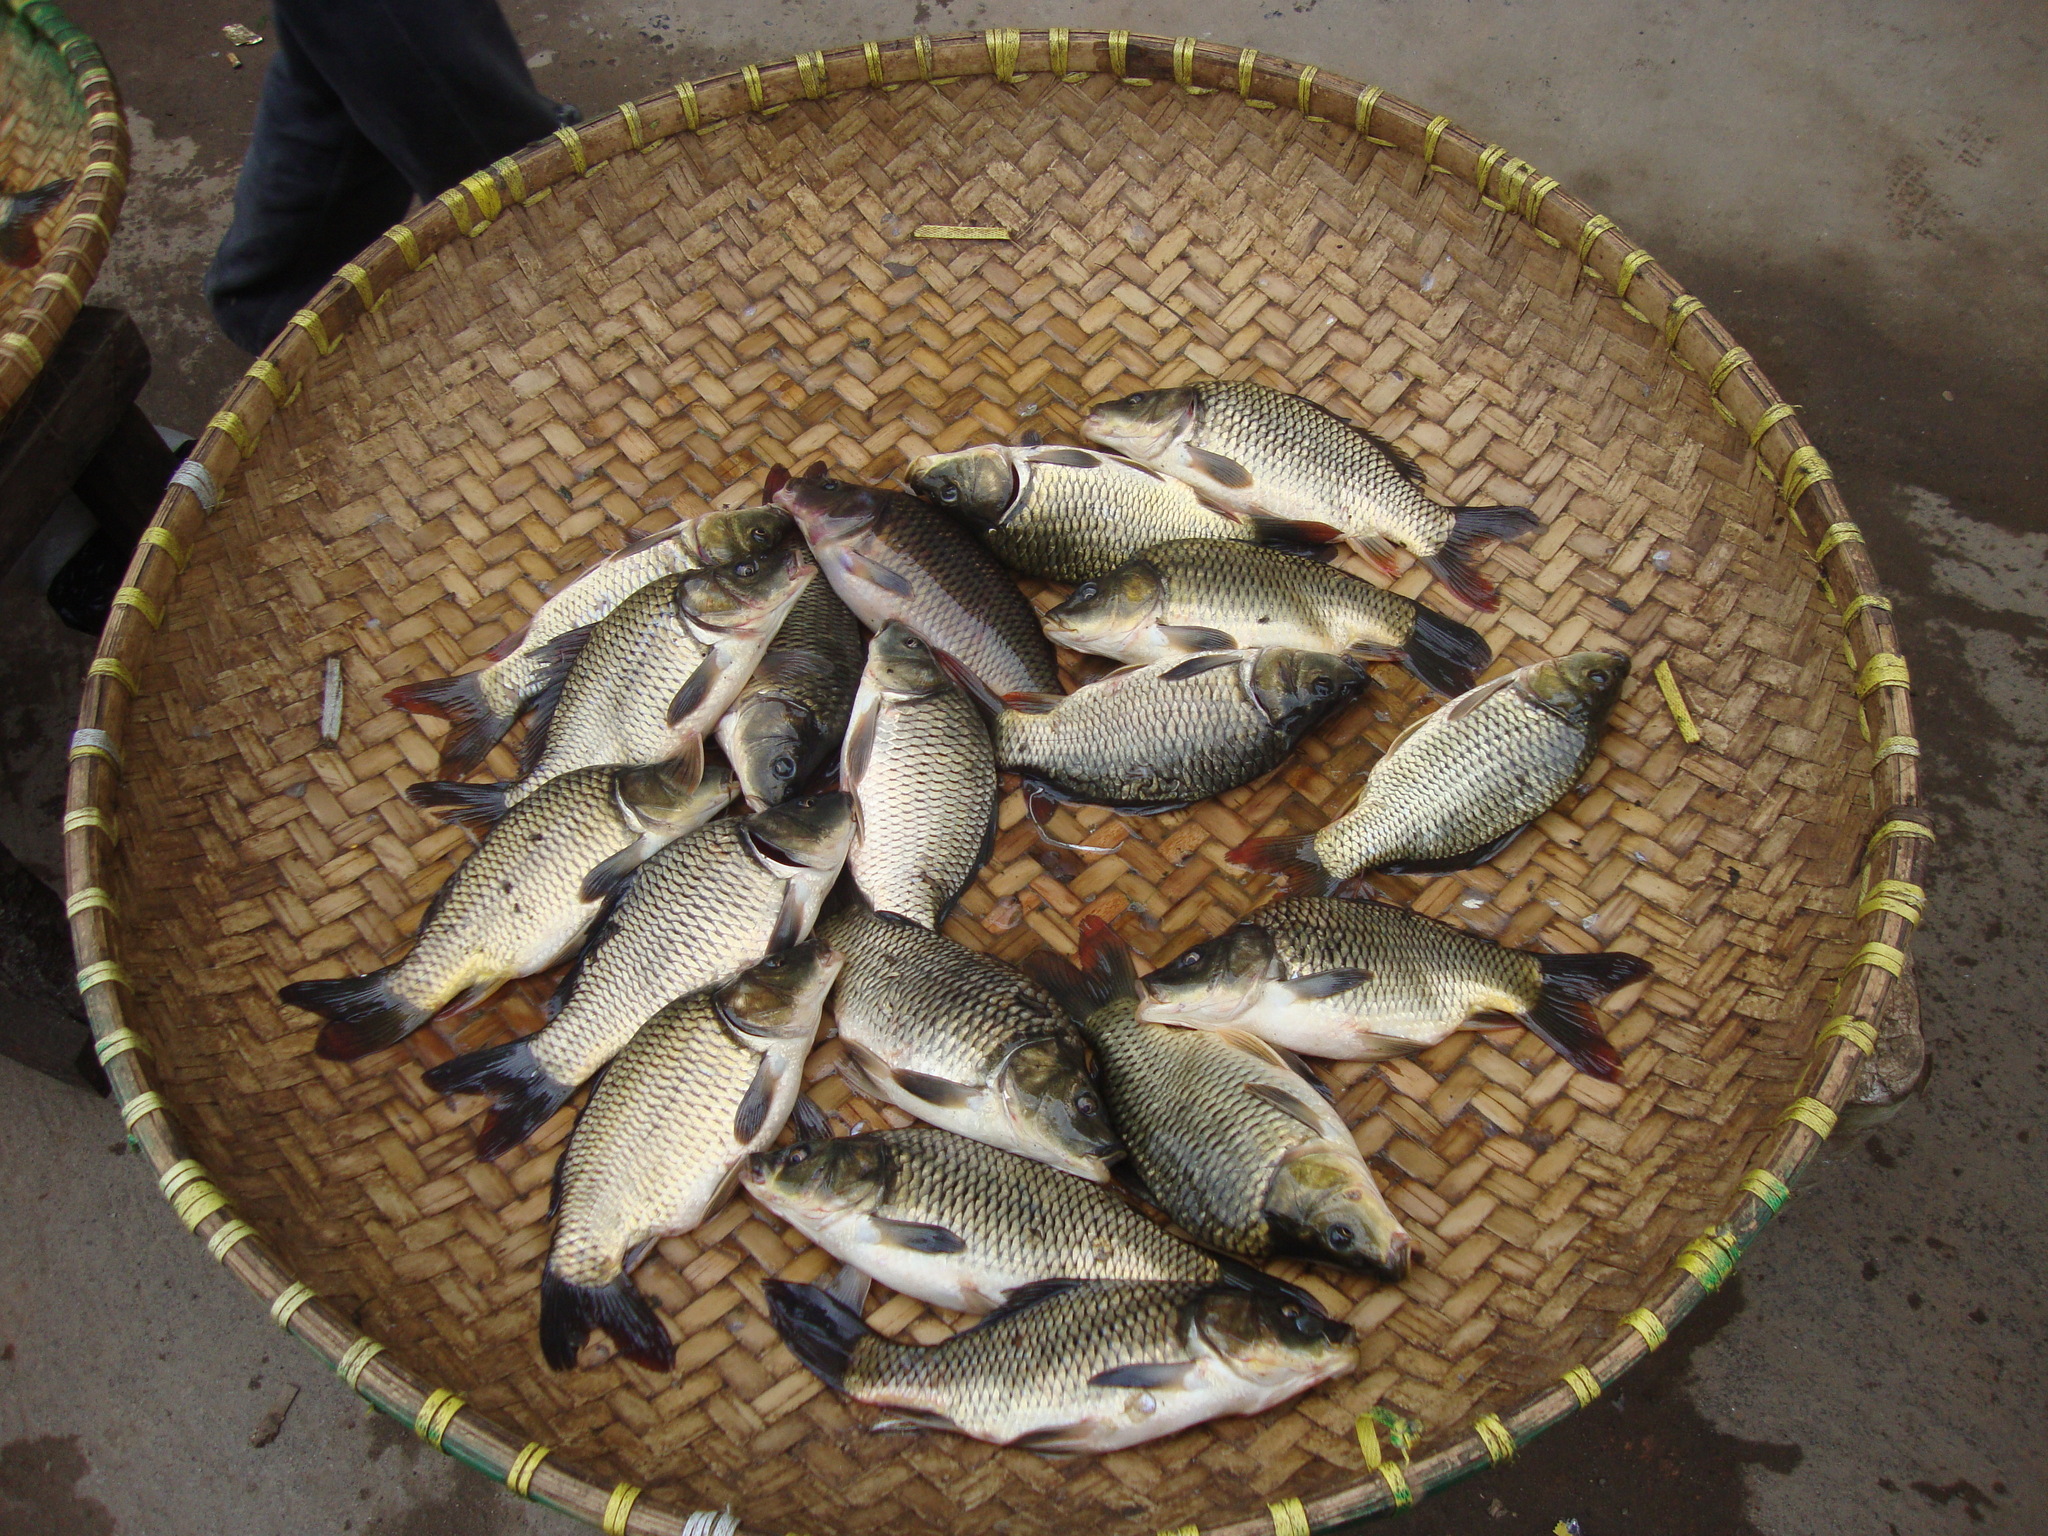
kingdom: Animalia
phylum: Chordata
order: Cypriniformes
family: Cyprinidae
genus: Cyprinus
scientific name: Cyprinus carpio
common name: Common carp
